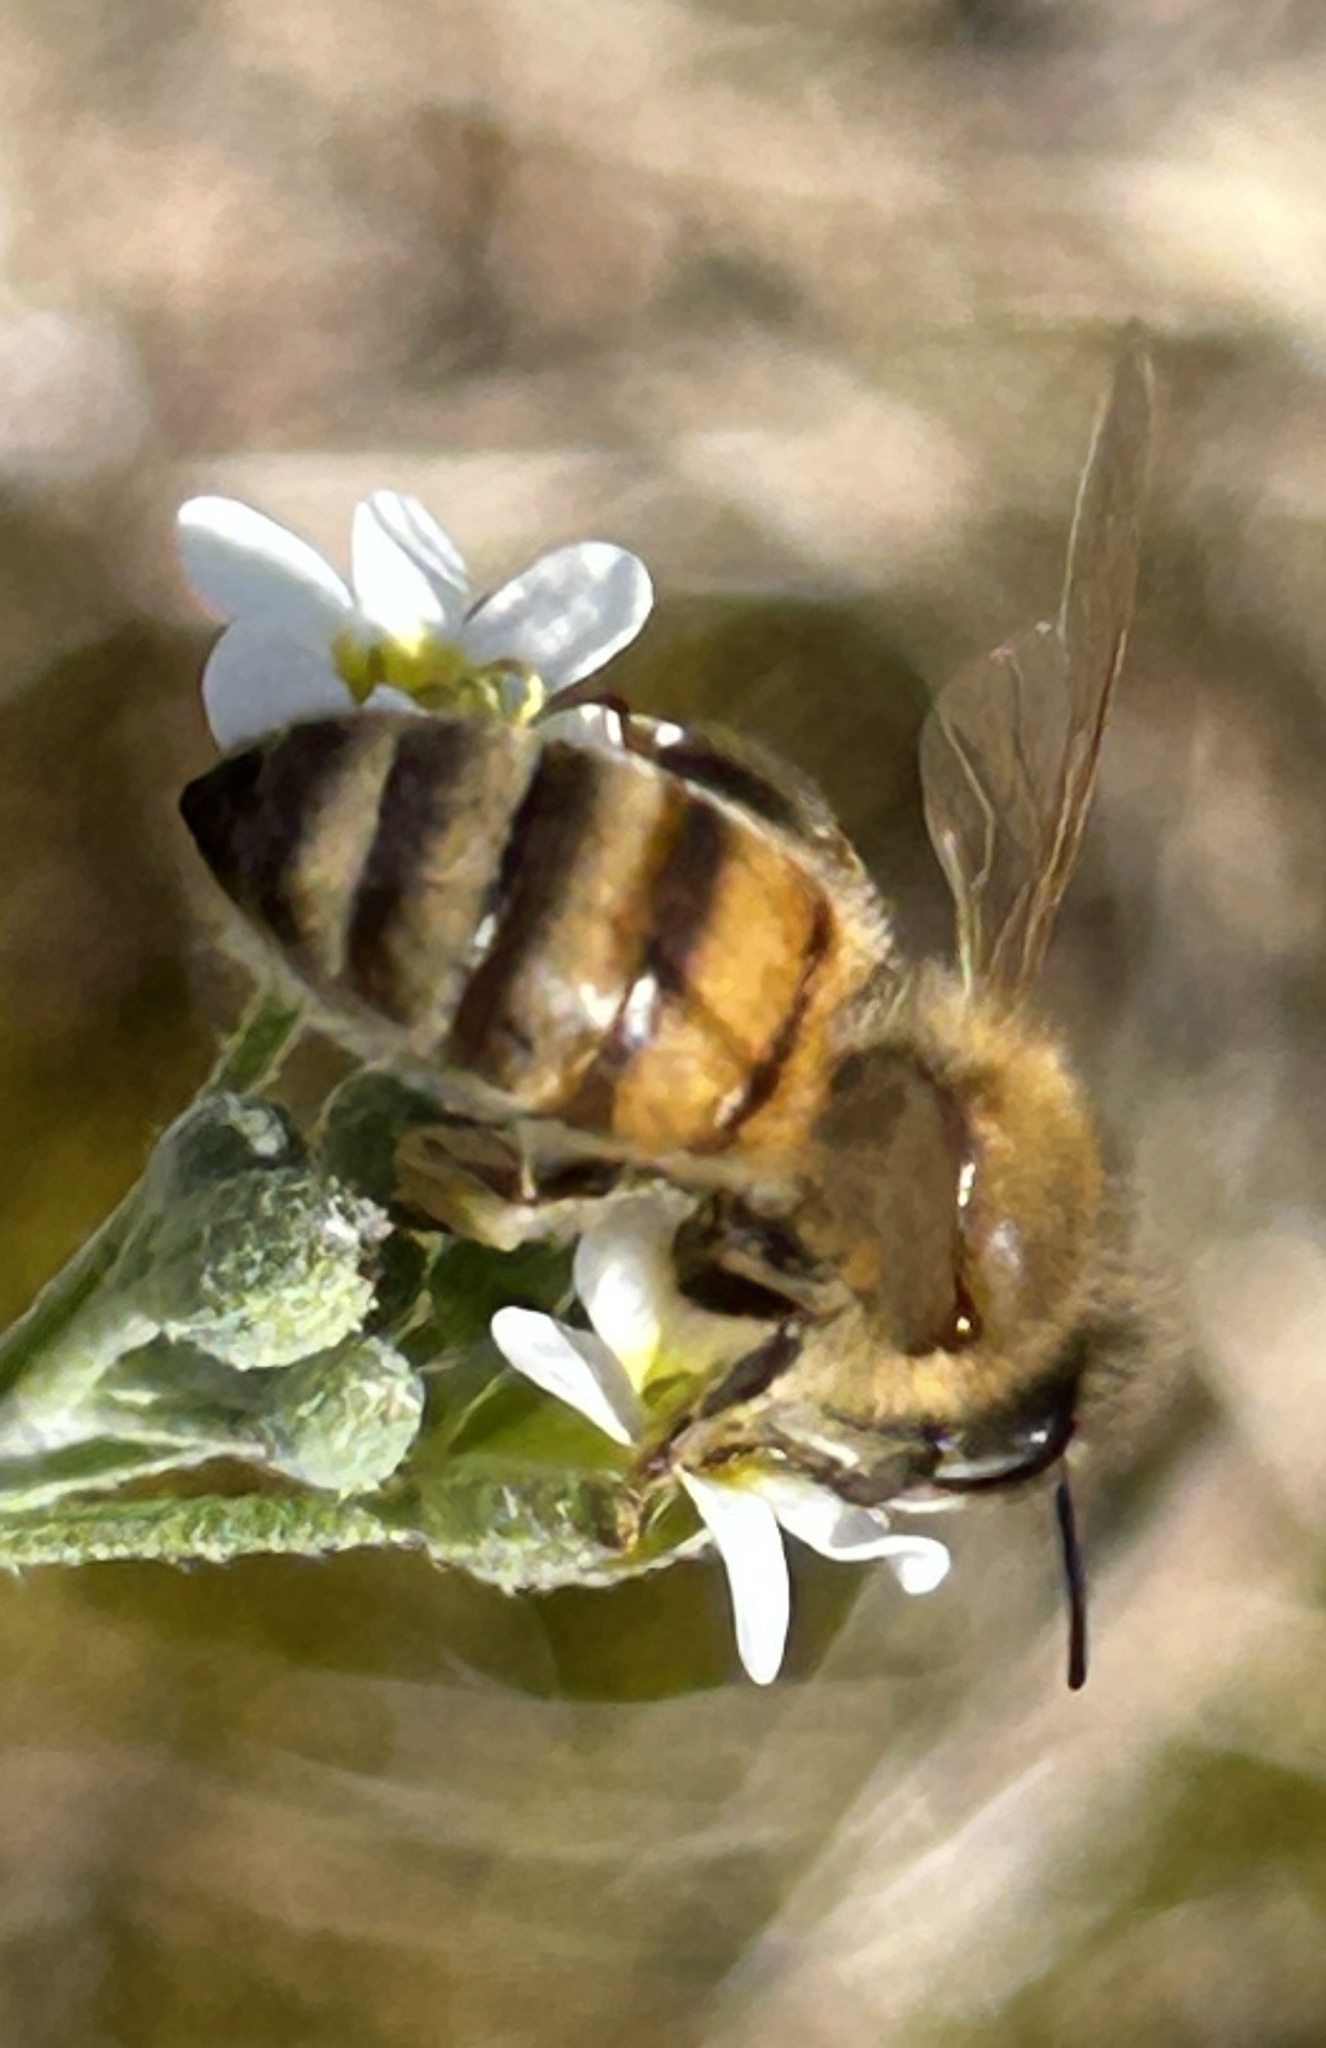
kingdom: Animalia
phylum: Arthropoda
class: Insecta
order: Hymenoptera
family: Apidae
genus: Apis
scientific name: Apis mellifera
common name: Honey bee
